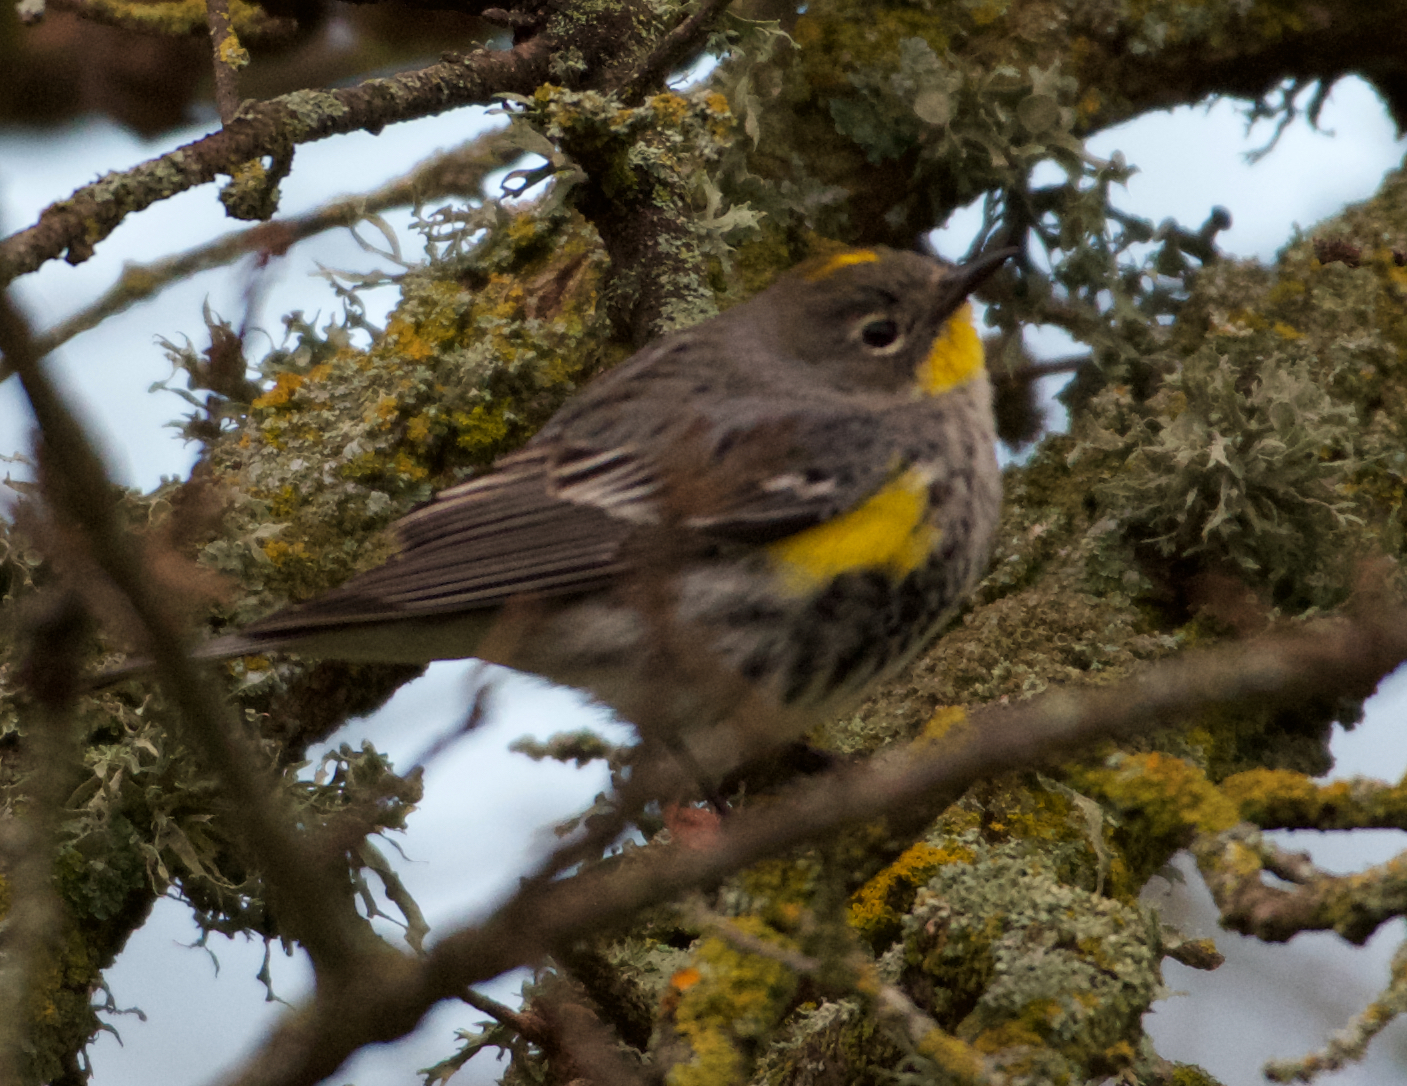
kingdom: Animalia
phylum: Chordata
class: Aves
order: Passeriformes
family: Parulidae
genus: Setophaga
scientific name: Setophaga coronata
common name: Myrtle warbler
